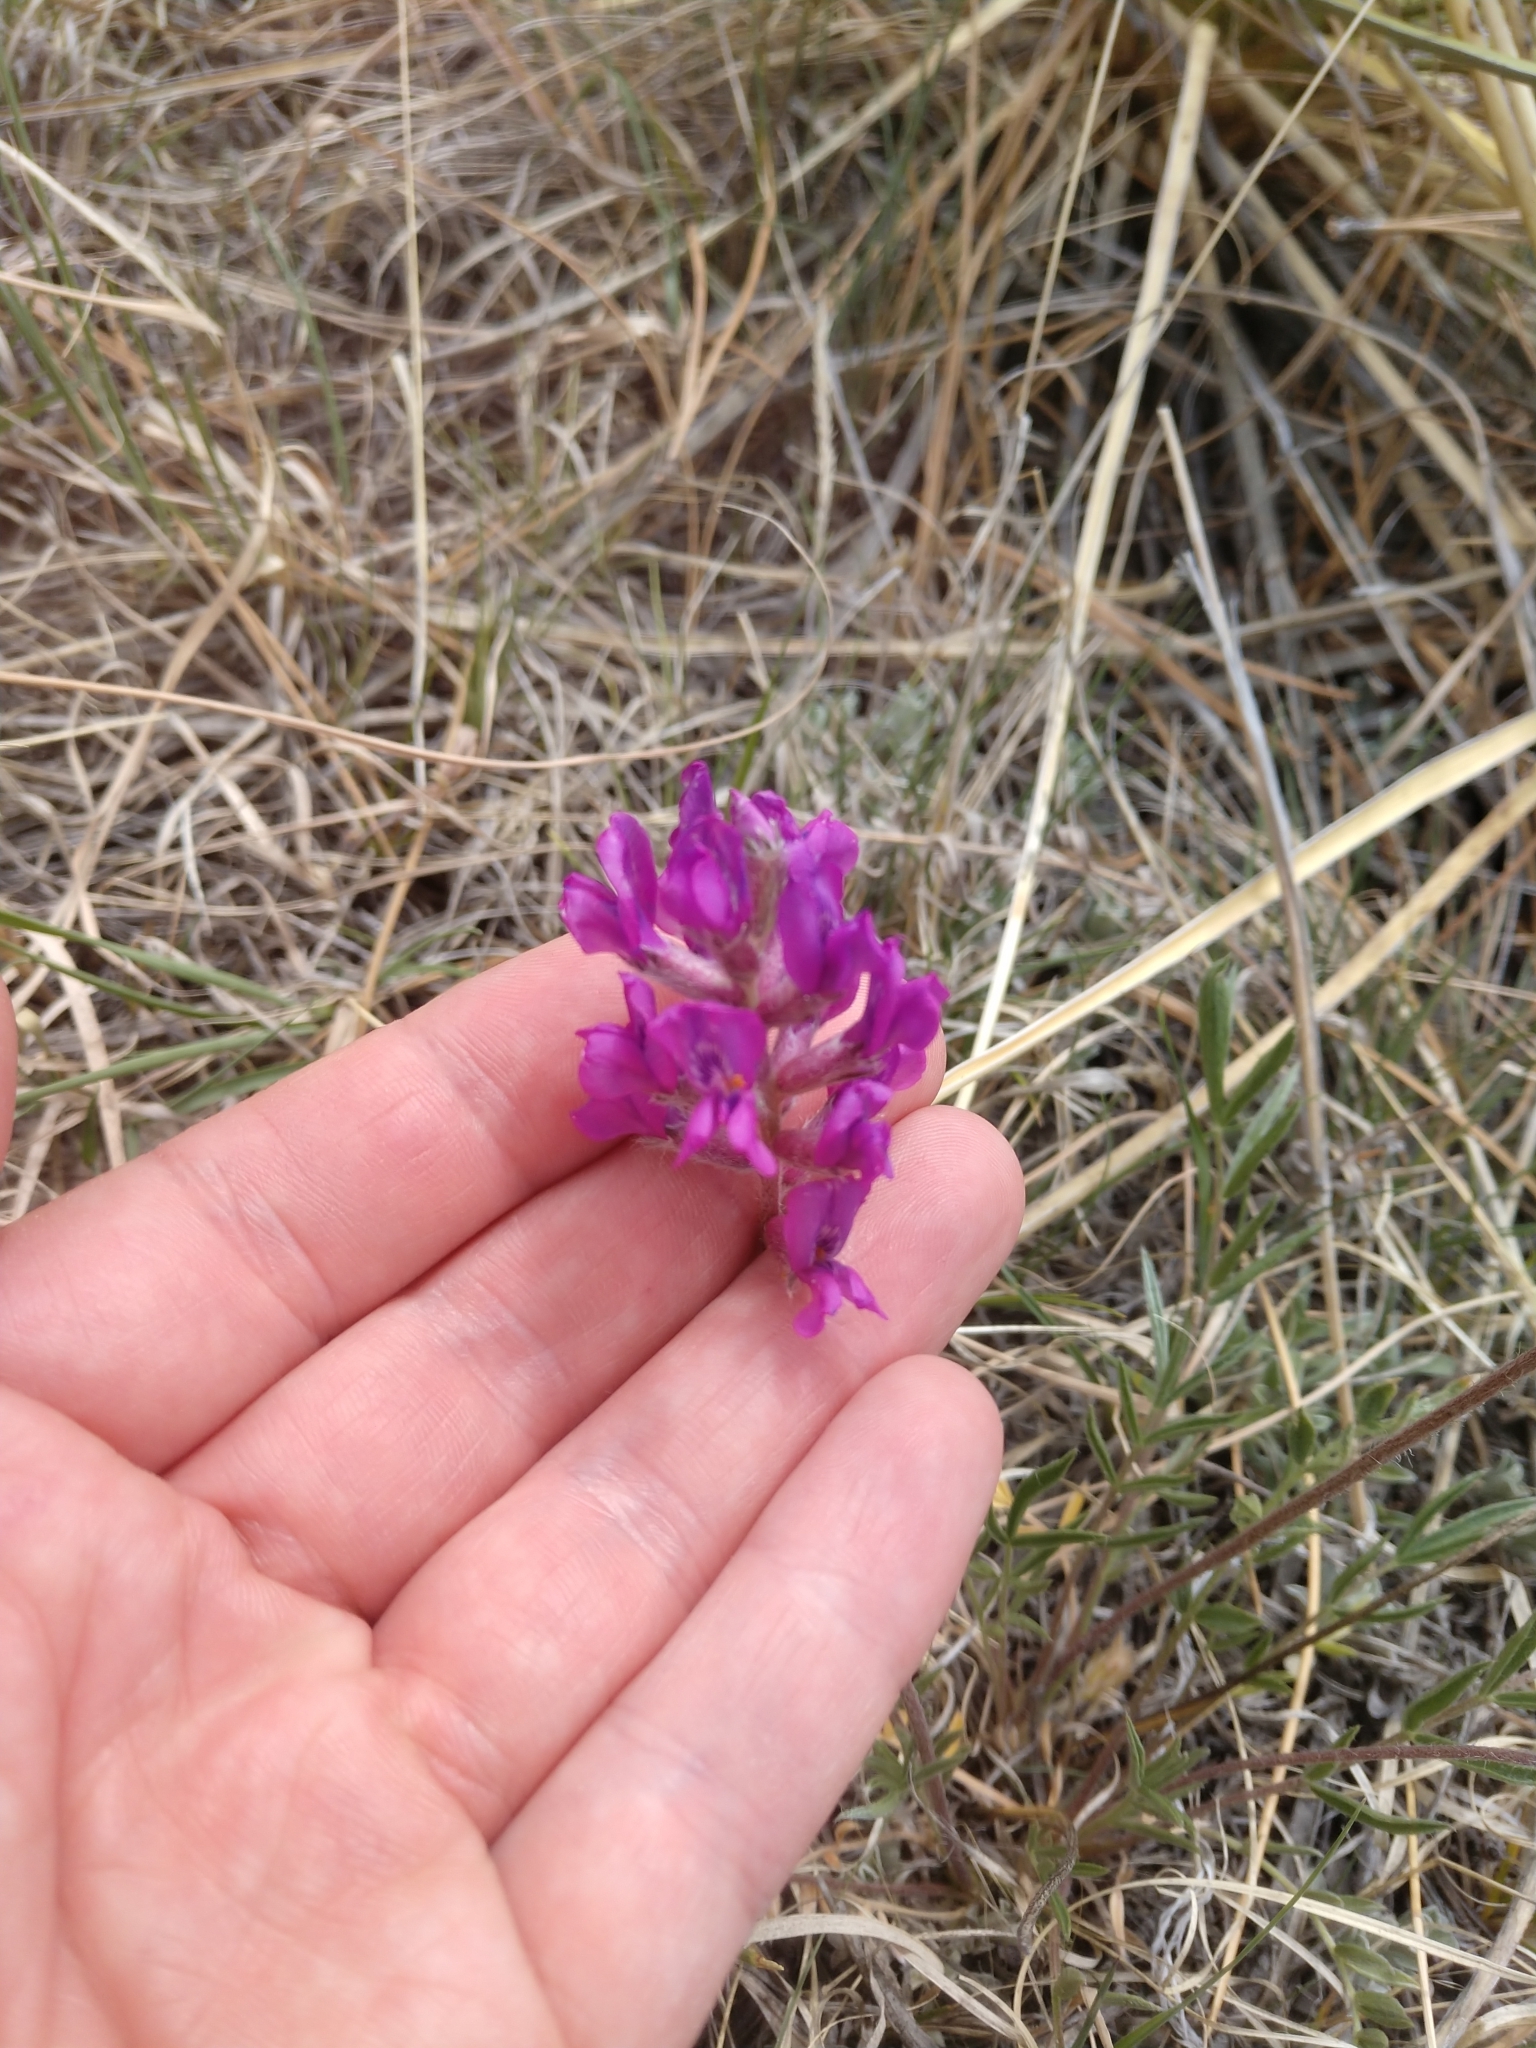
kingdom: Plantae
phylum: Tracheophyta
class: Magnoliopsida
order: Fabales
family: Fabaceae
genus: Oxytropis
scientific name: Oxytropis lambertii
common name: Purple locoweed
